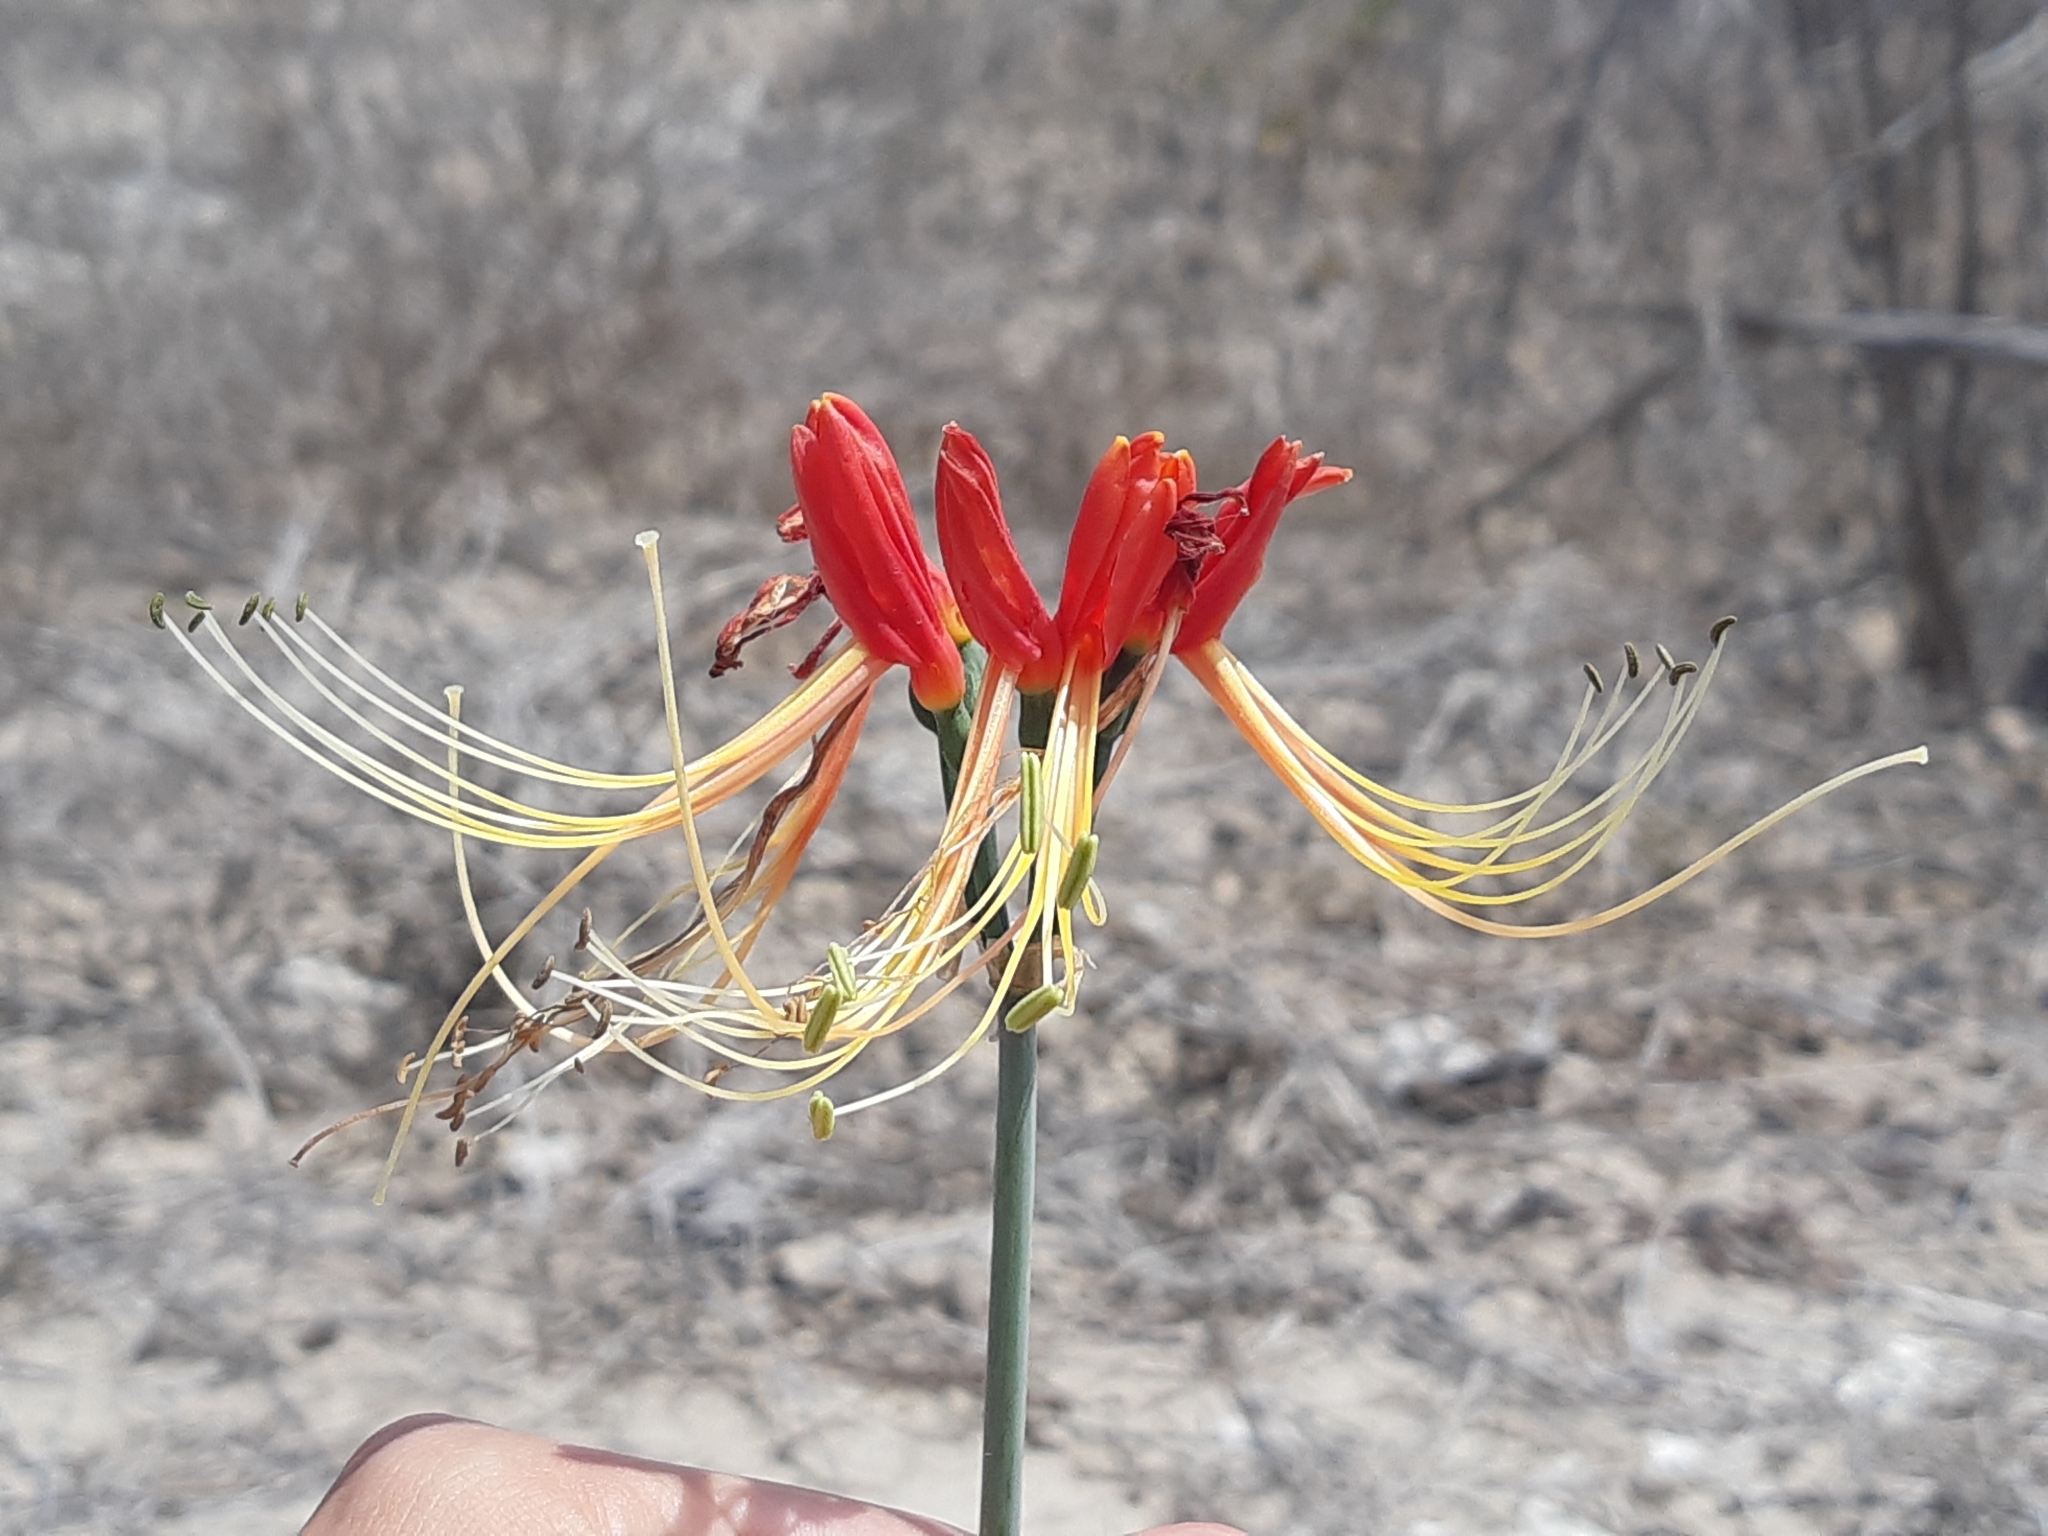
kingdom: Plantae
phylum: Tracheophyta
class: Liliopsida
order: Asparagales
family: Amaryllidaceae
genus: Eucrosia
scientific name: Eucrosia bicolor
